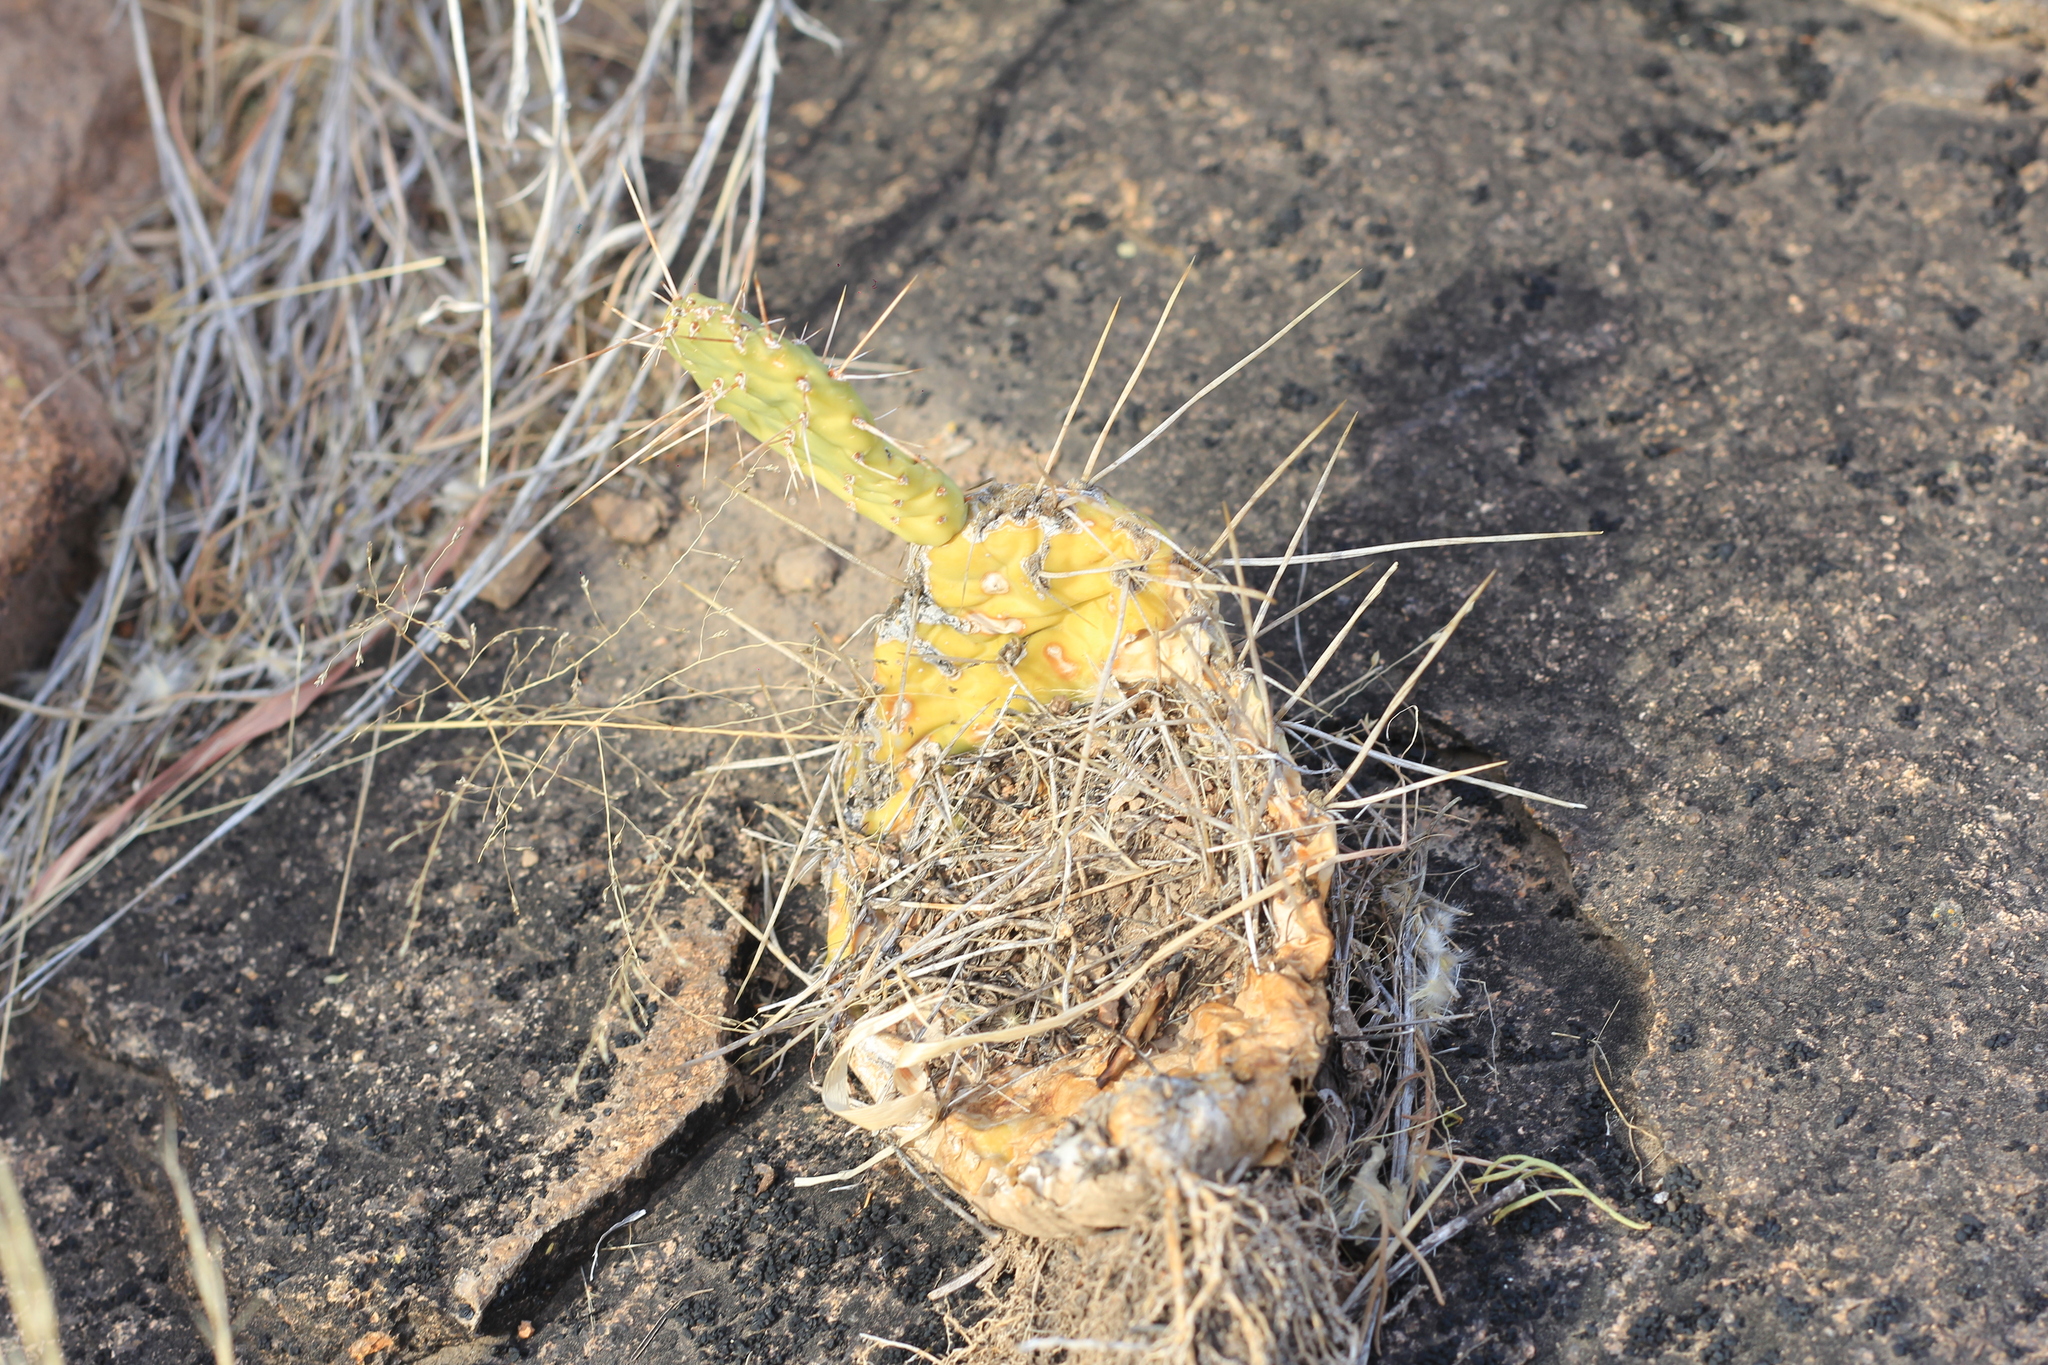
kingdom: Plantae
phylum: Tracheophyta
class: Magnoliopsida
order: Caryophyllales
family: Cactaceae
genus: Opuntia
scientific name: Opuntia sulphurea
